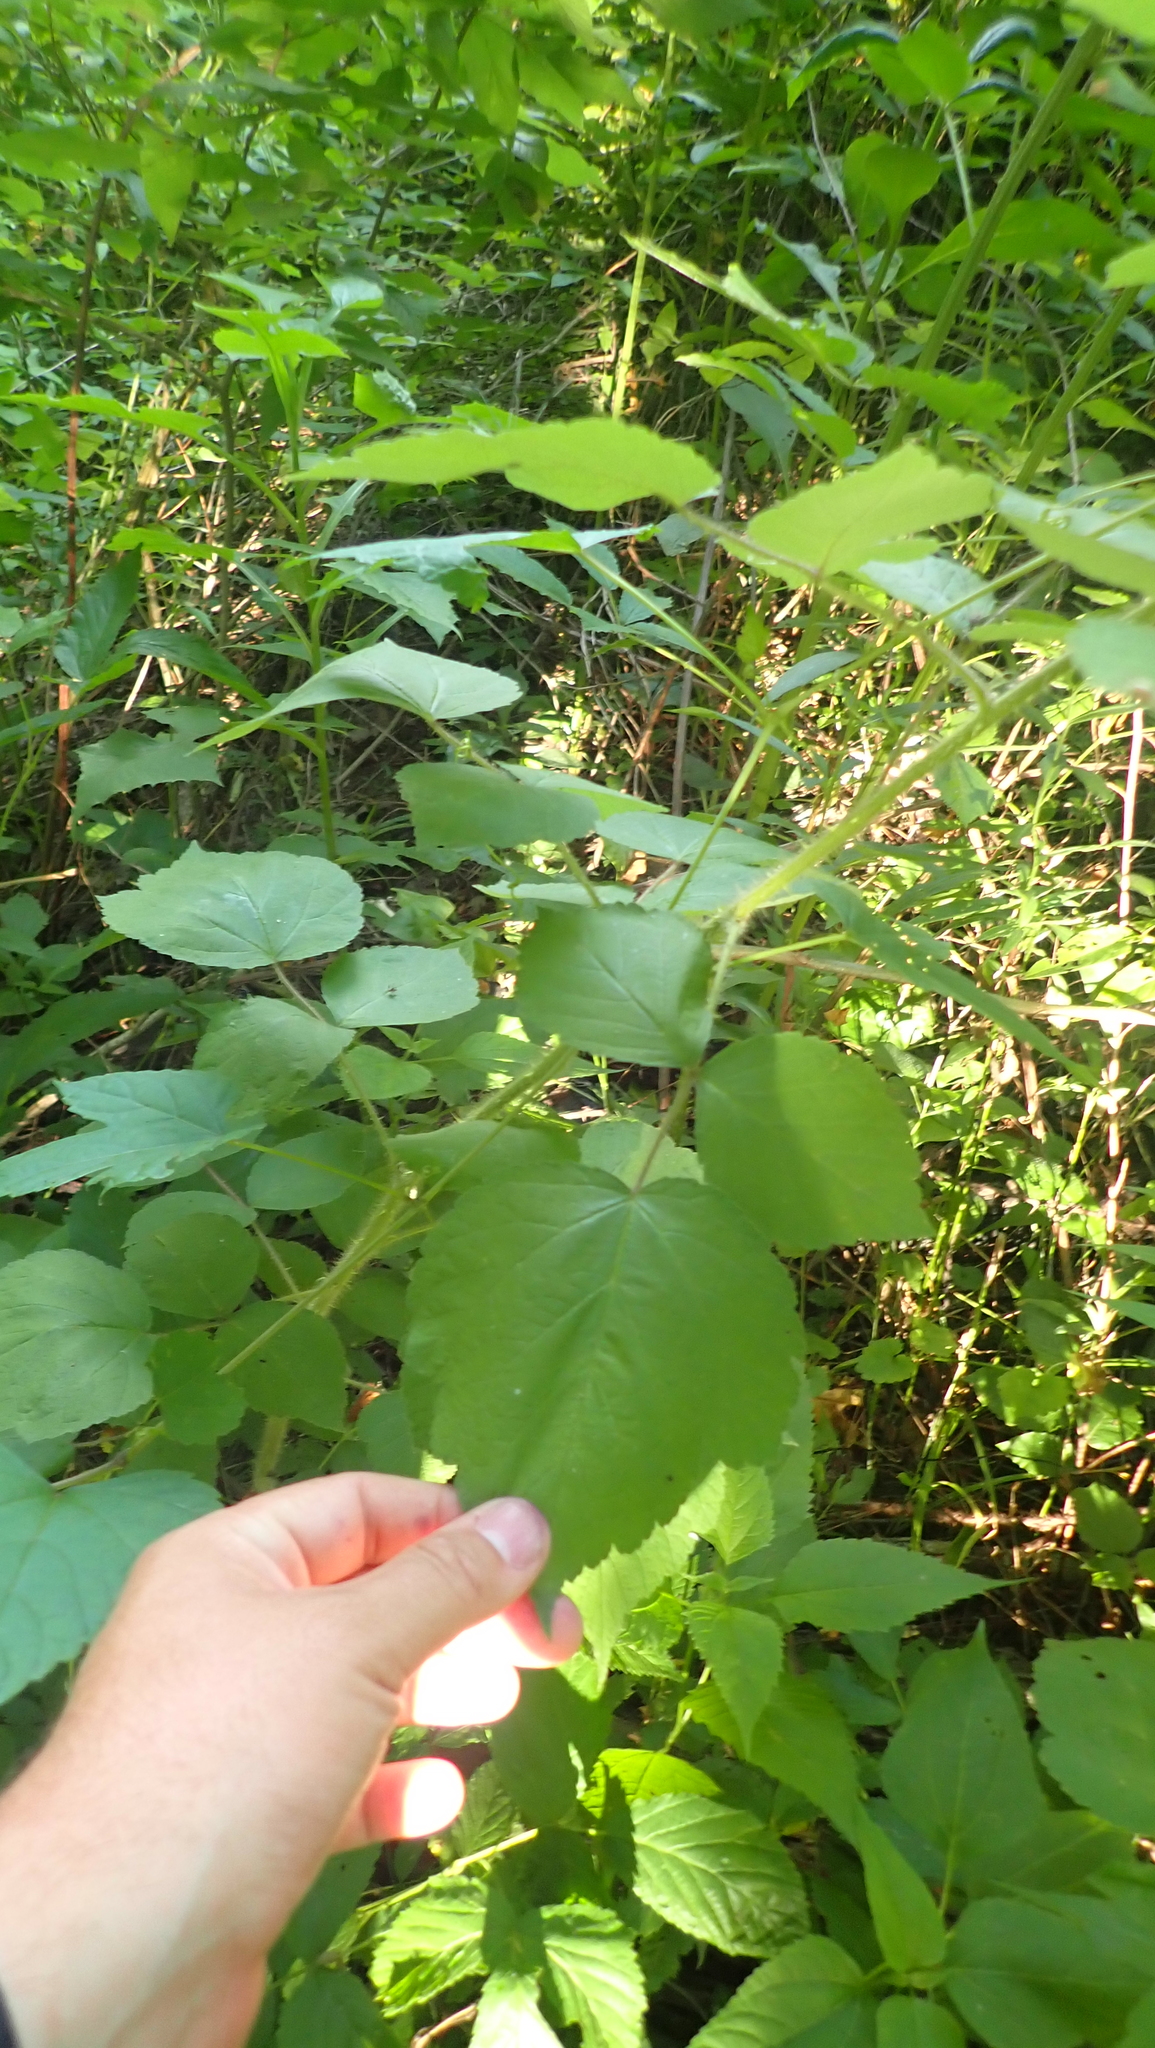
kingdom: Plantae
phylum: Tracheophyta
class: Magnoliopsida
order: Rosales
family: Rosaceae
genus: Rubus
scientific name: Rubus phoenicolasius
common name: Japanese wineberry
